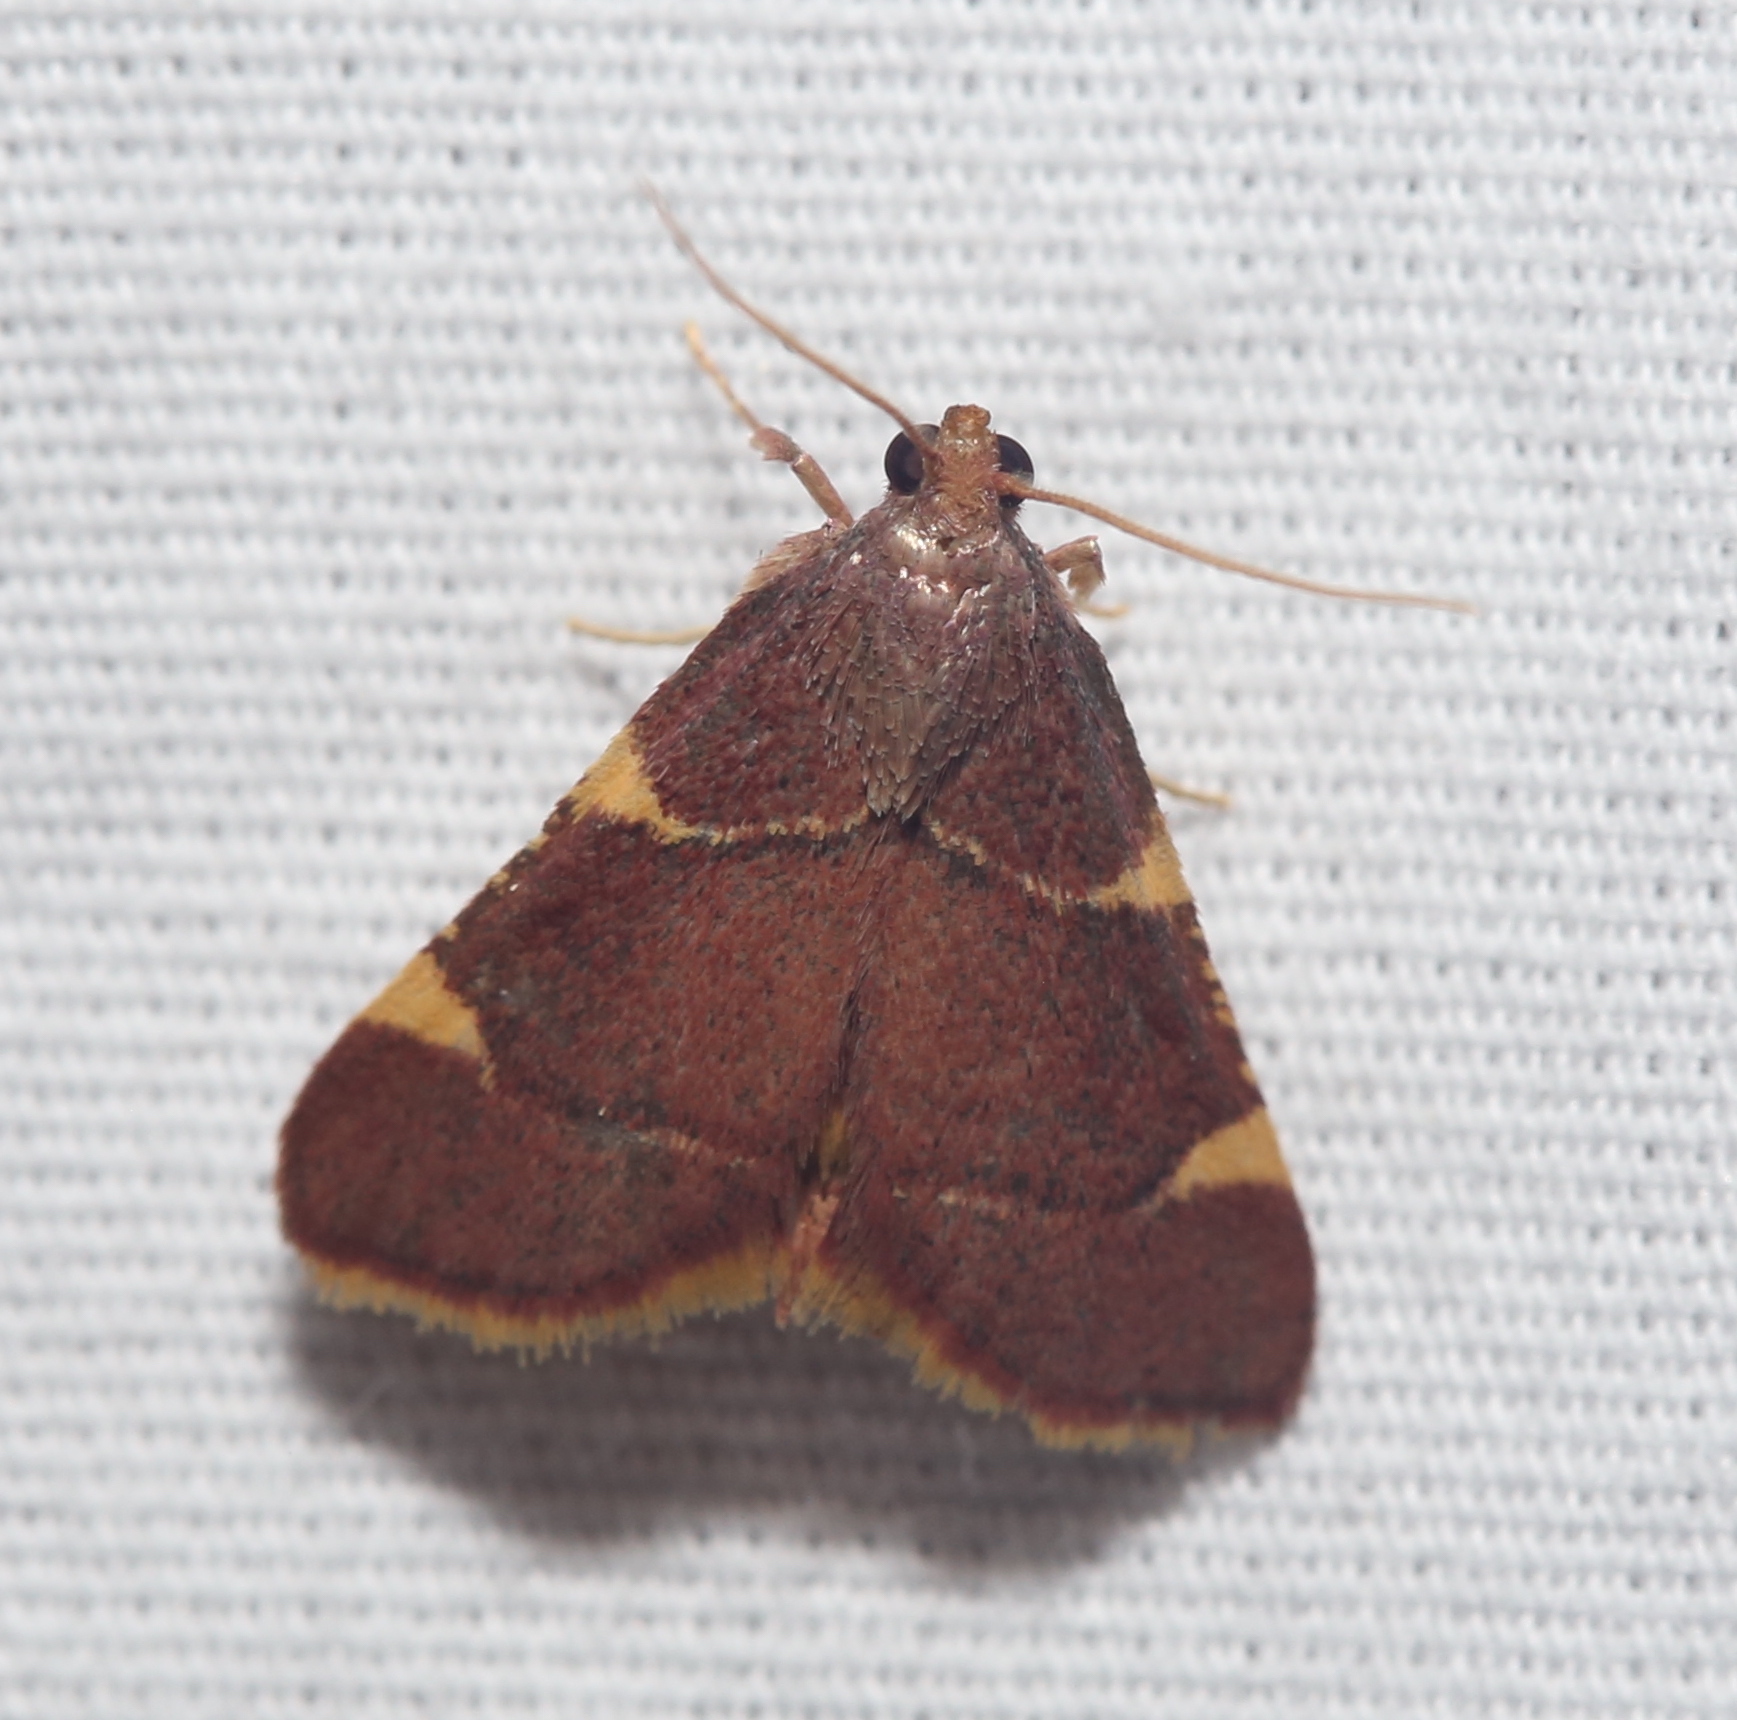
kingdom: Animalia
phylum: Arthropoda
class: Insecta
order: Lepidoptera
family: Pyralidae
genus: Hypsopygia
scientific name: Hypsopygia olinalis
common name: Yellow-fringed dolichomia moth
